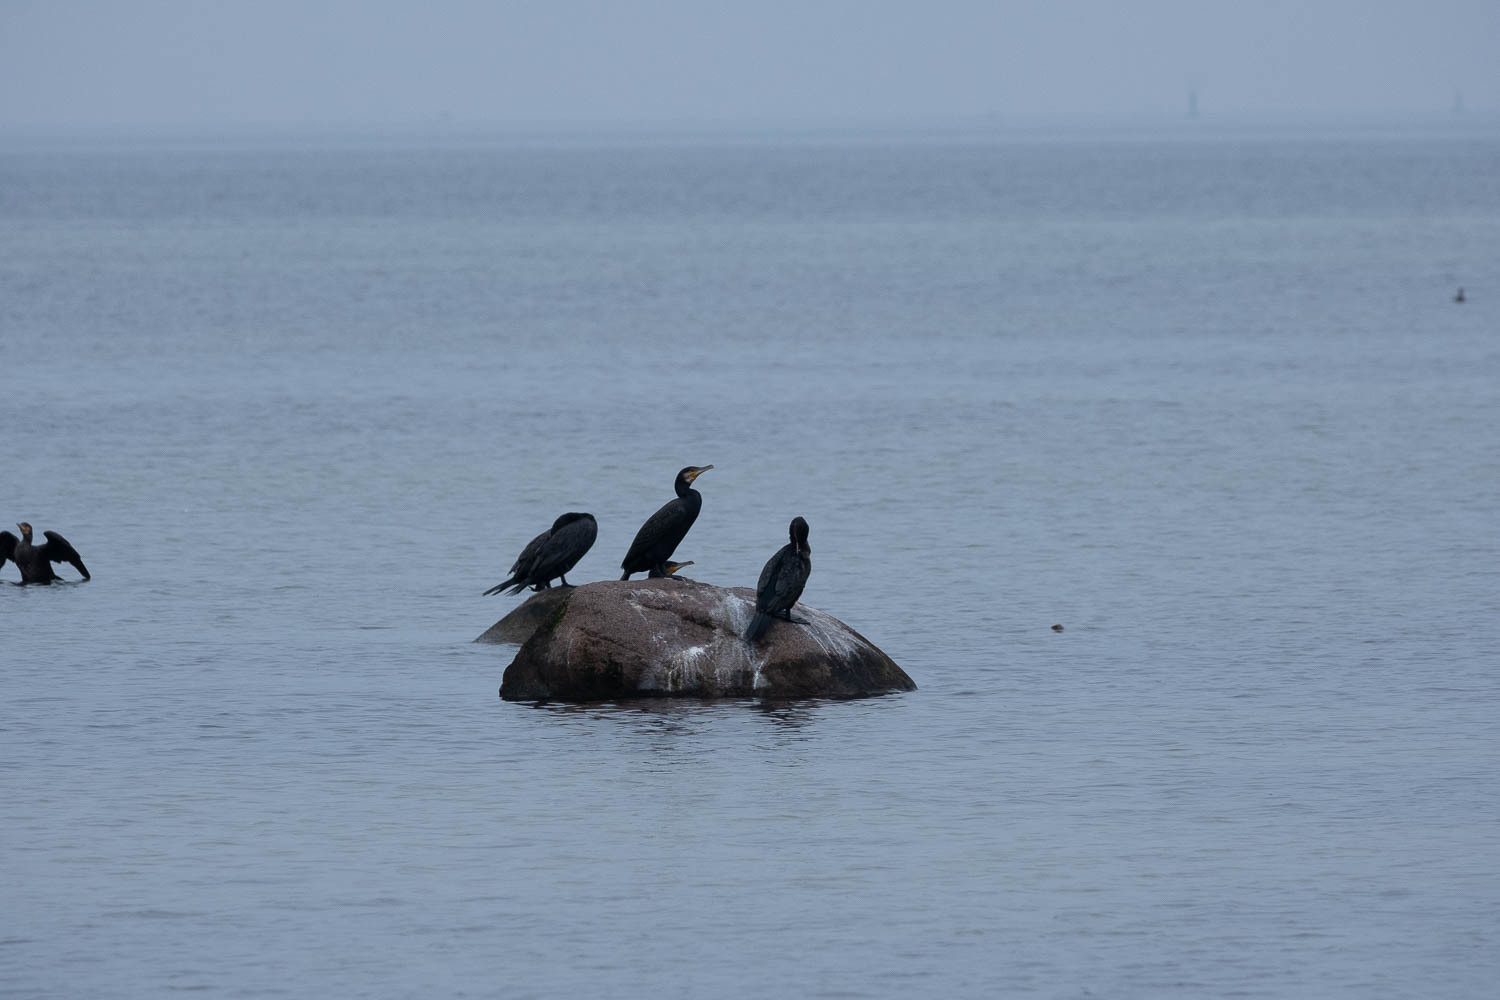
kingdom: Animalia
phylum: Chordata
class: Aves
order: Suliformes
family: Phalacrocoracidae
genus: Phalacrocorax
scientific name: Phalacrocorax carbo
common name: Great cormorant
